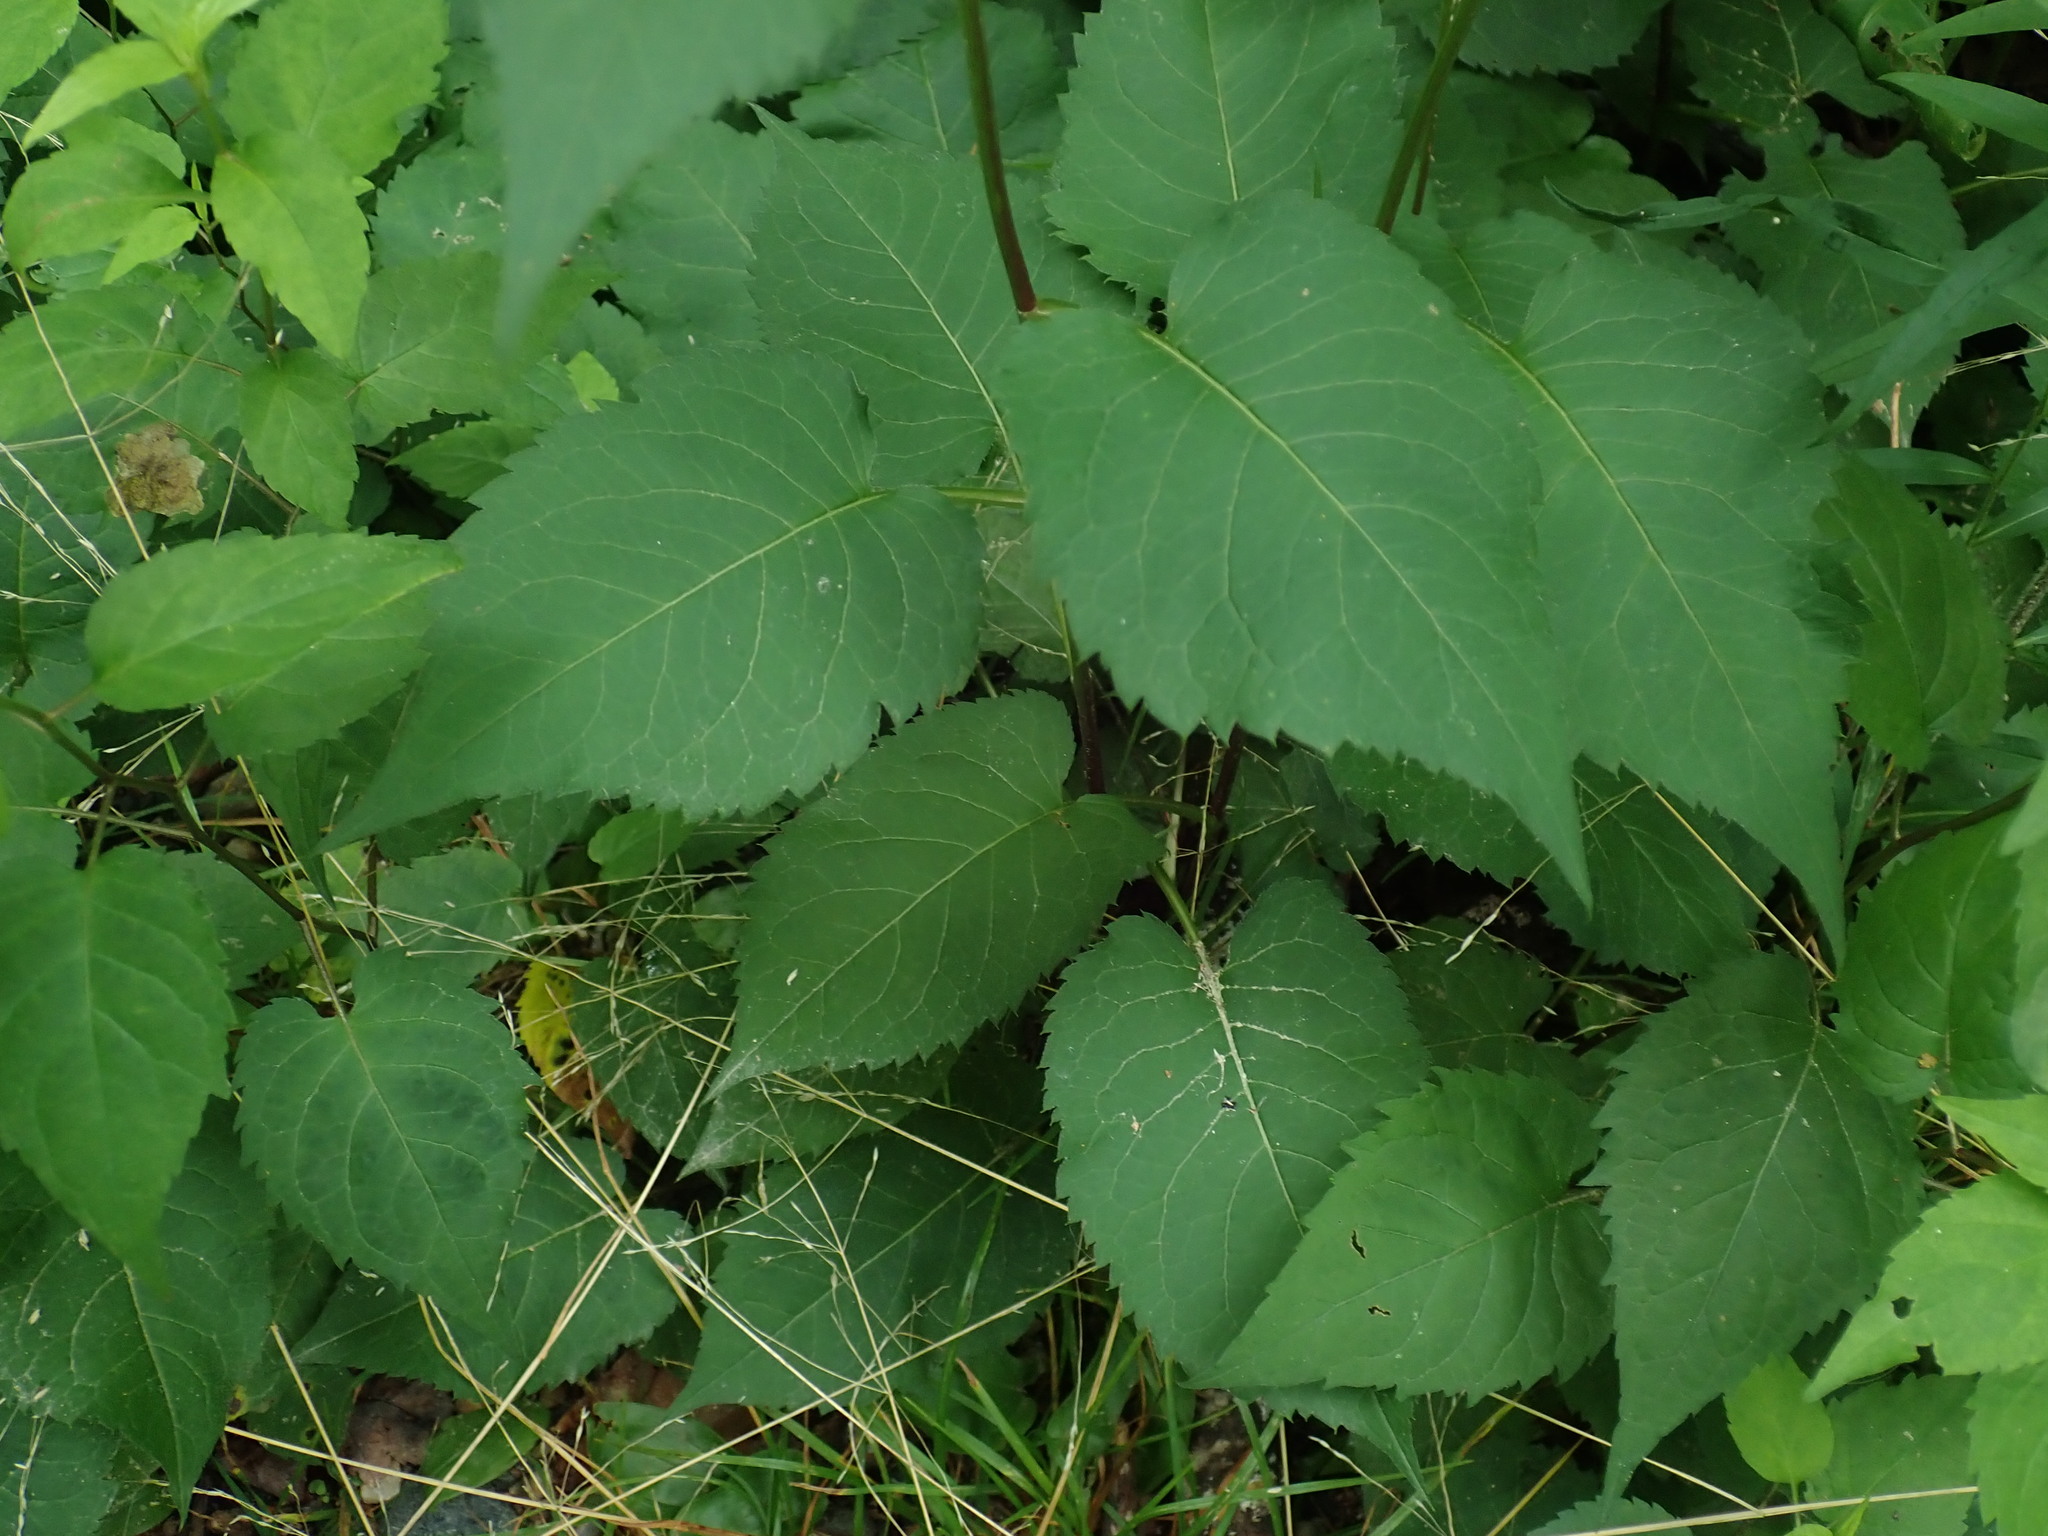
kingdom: Plantae
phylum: Tracheophyta
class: Magnoliopsida
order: Asterales
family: Asteraceae
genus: Eurybia
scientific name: Eurybia macrophylla
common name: Big-leaved aster
